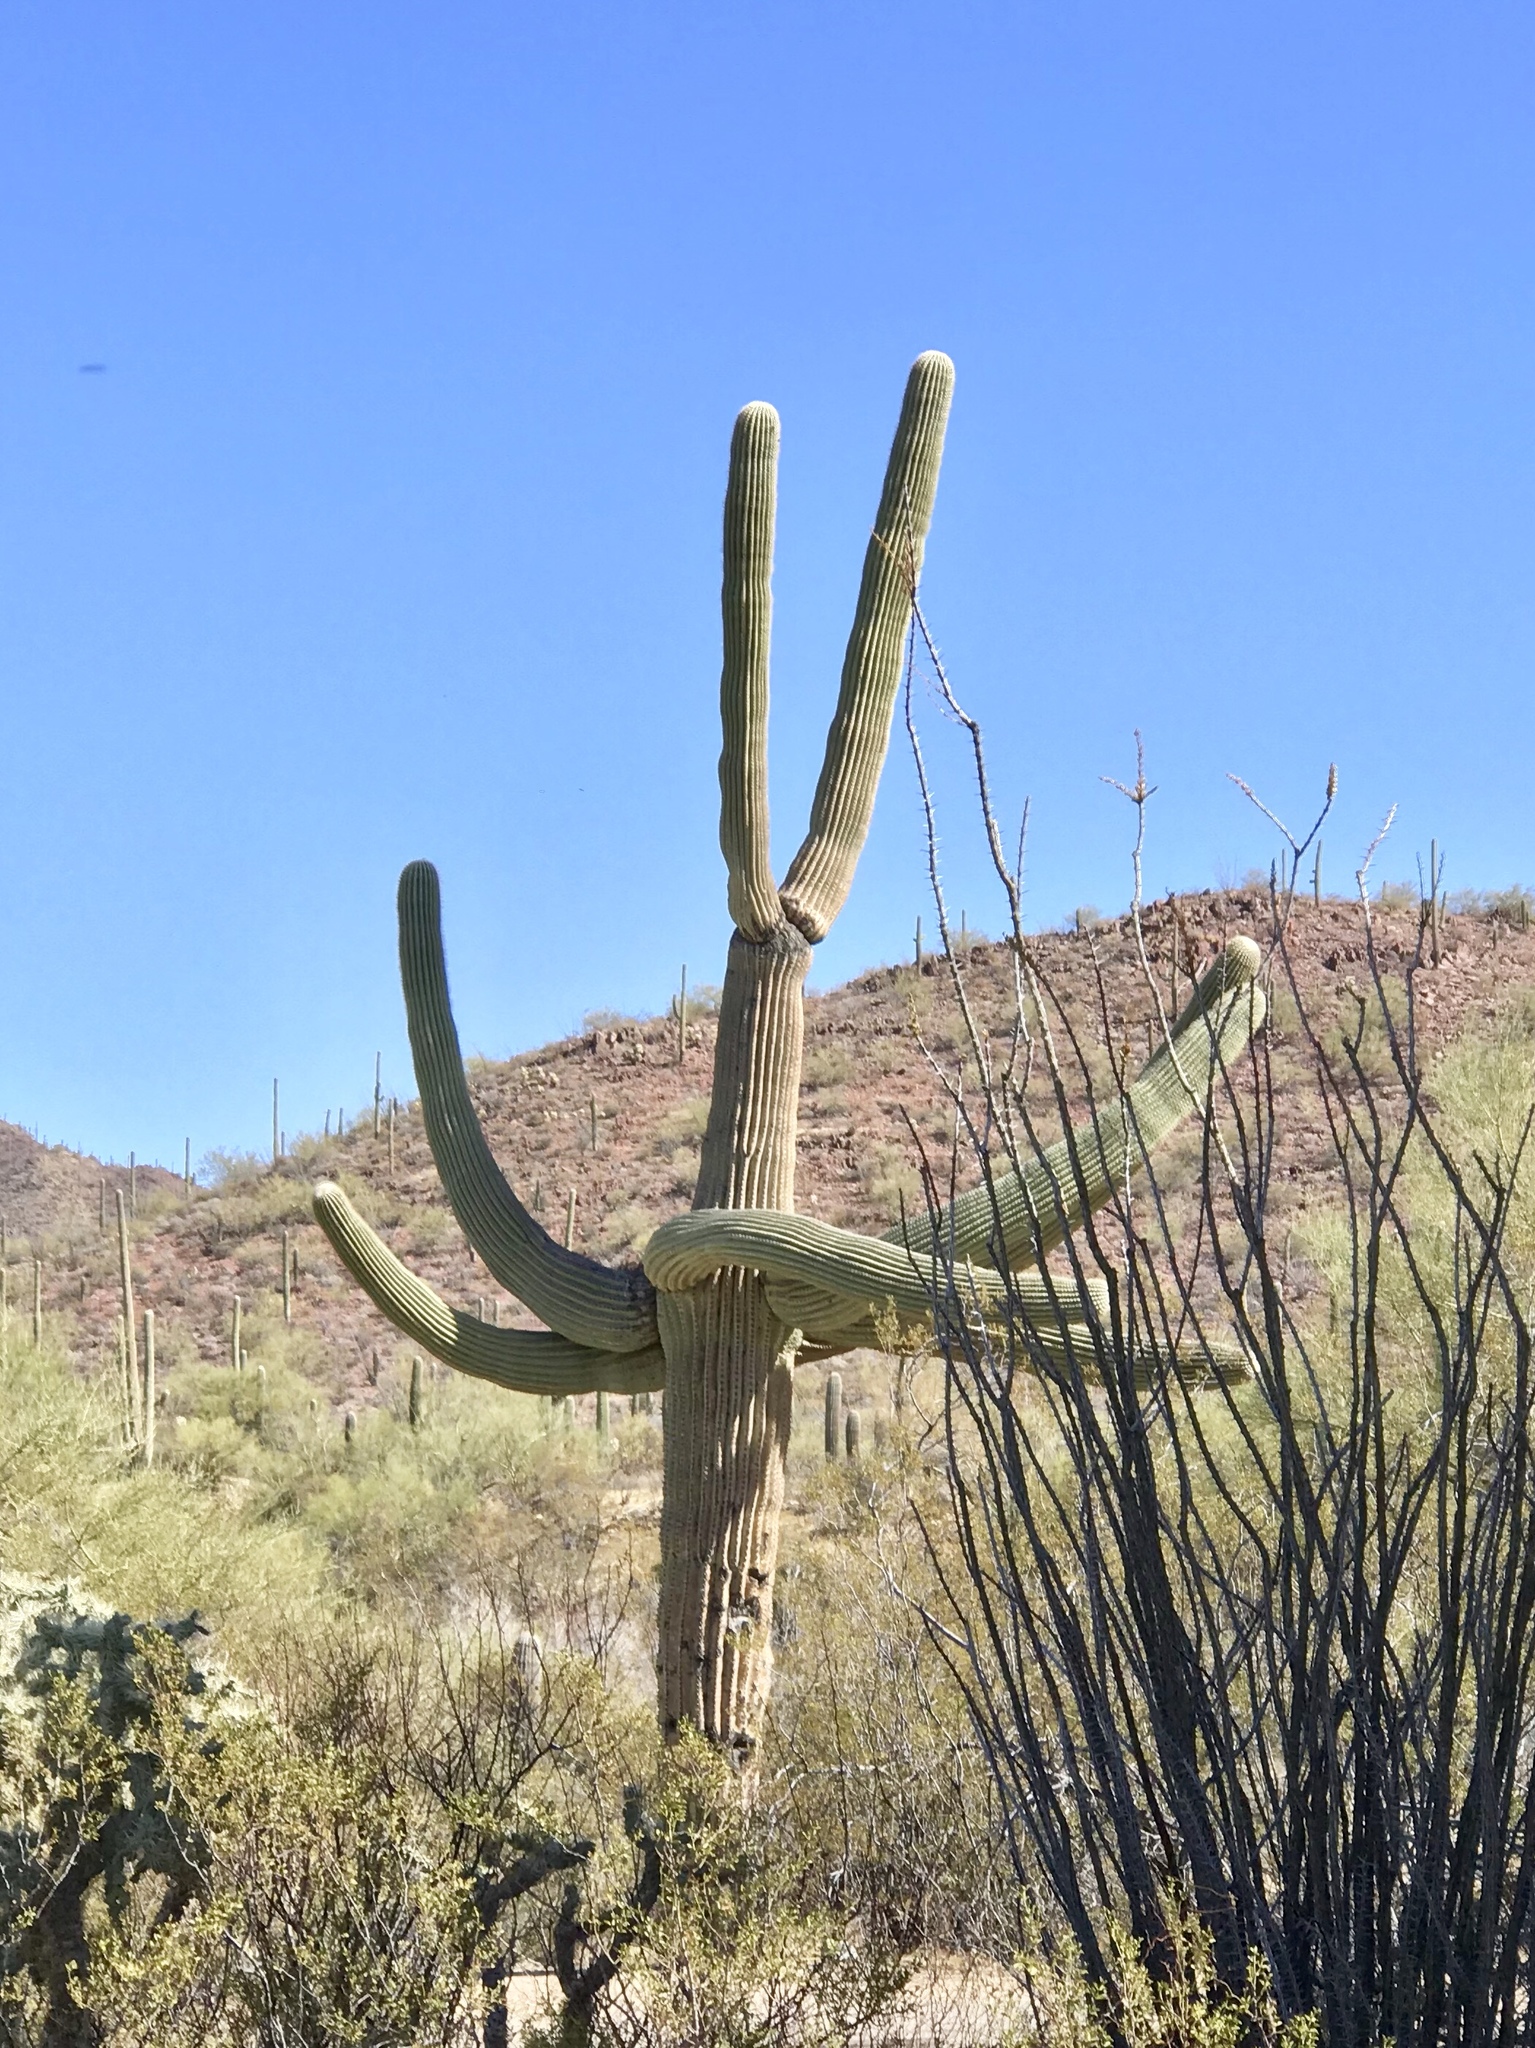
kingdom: Plantae
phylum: Tracheophyta
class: Magnoliopsida
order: Caryophyllales
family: Cactaceae
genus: Carnegiea
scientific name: Carnegiea gigantea
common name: Saguaro
